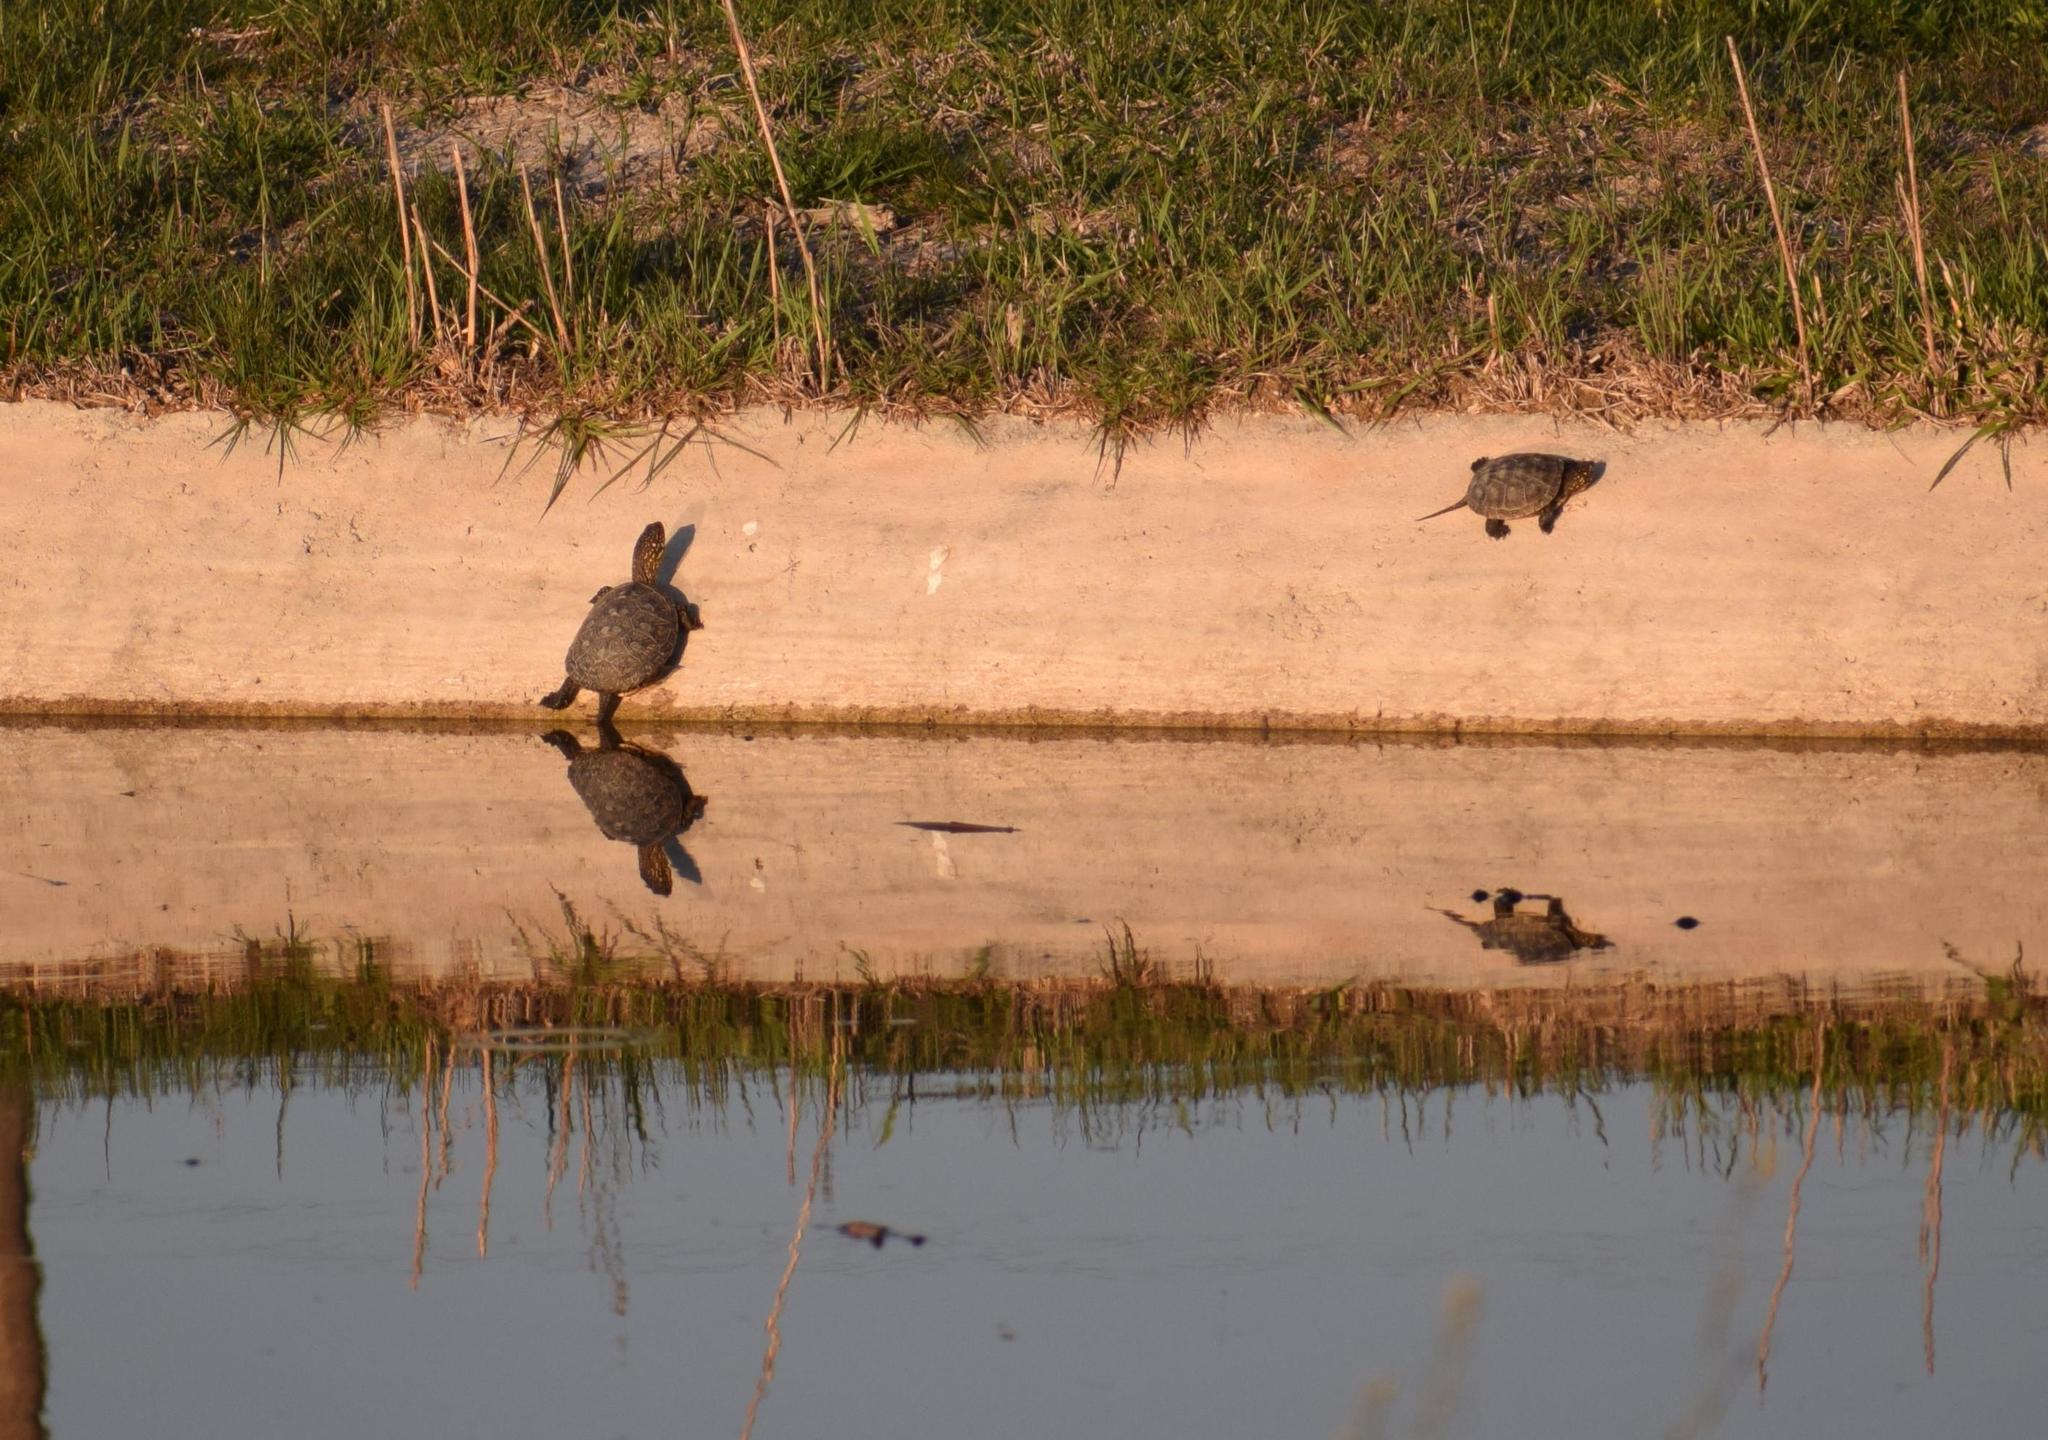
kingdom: Animalia
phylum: Chordata
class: Testudines
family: Emydidae
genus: Emys
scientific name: Emys orbicularis
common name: European pond turtle
